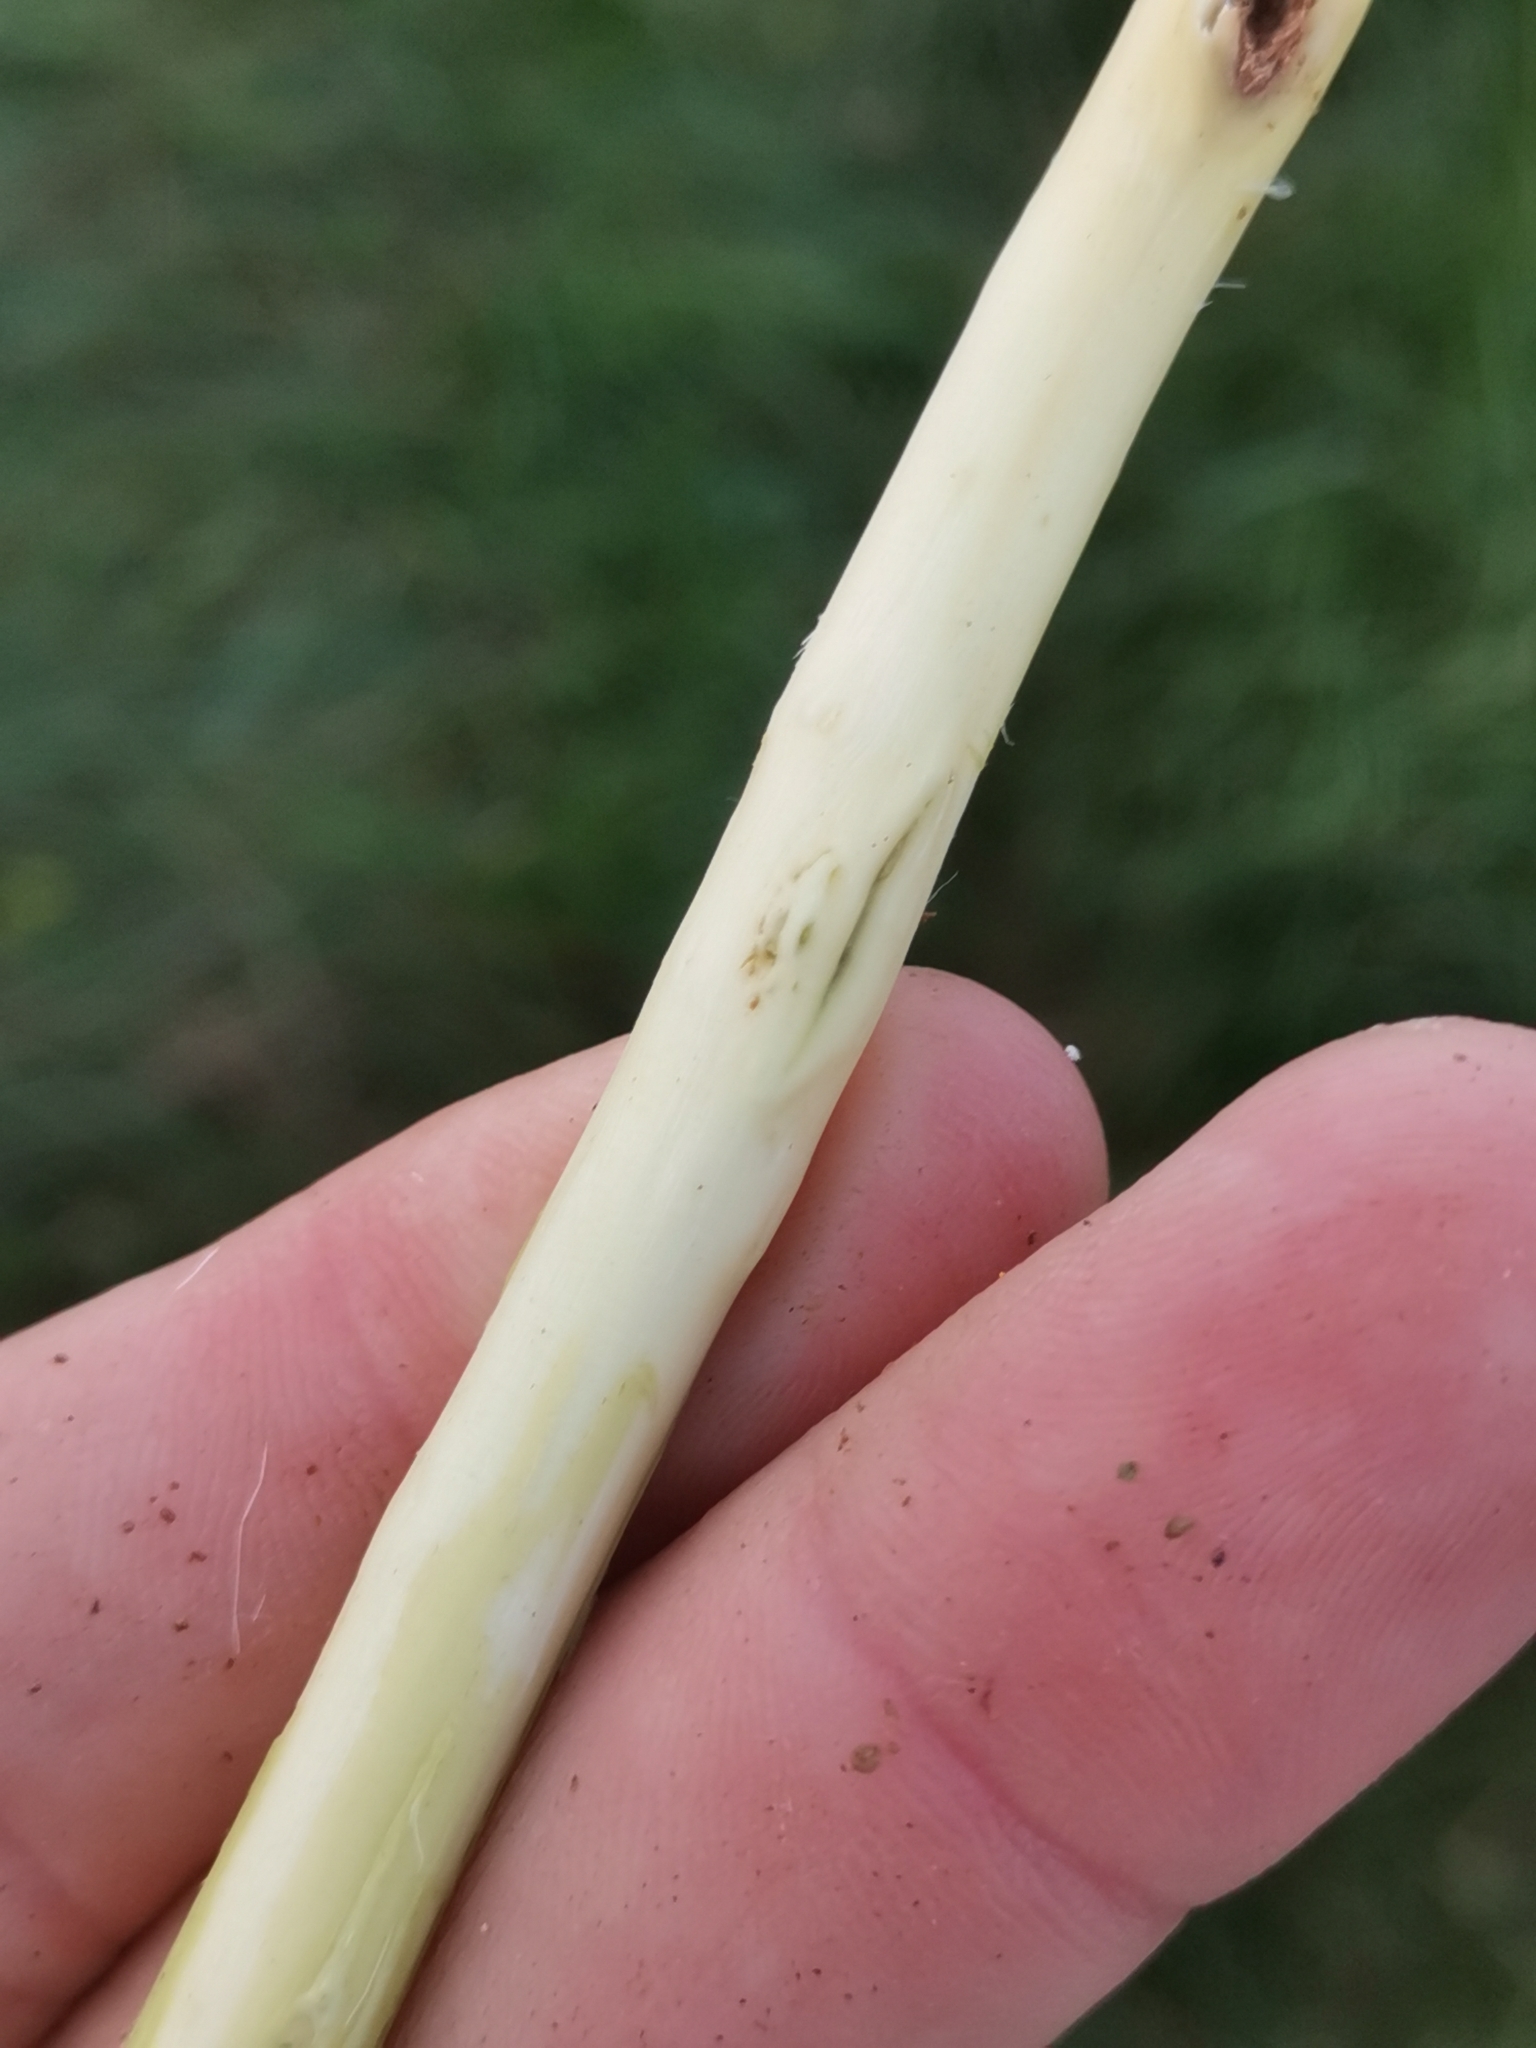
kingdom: Plantae
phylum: Tracheophyta
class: Magnoliopsida
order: Malpighiales
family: Salicaceae
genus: Salix
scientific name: Salix eleagnos
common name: Elaeagnus willow
